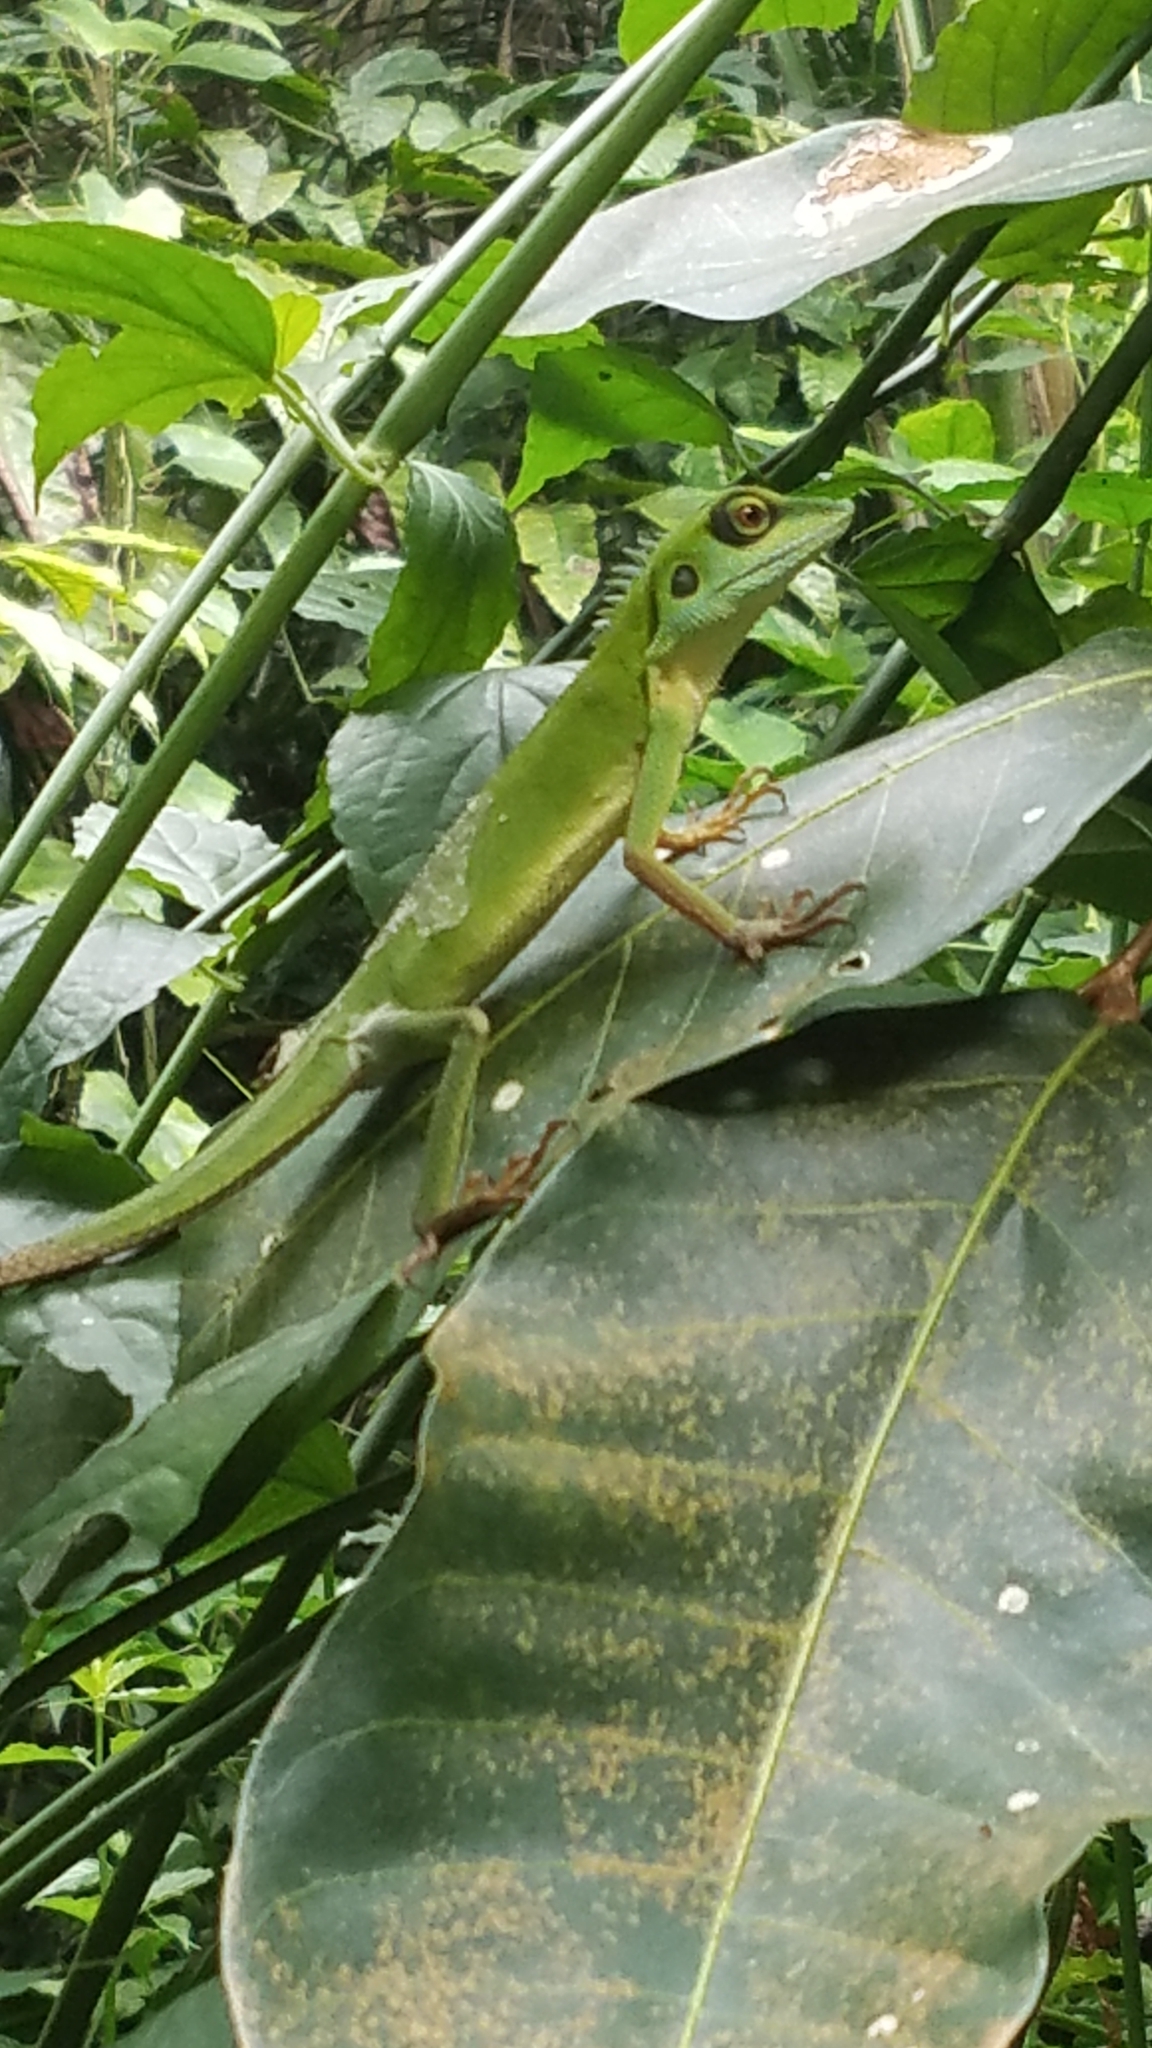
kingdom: Animalia
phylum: Chordata
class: Squamata
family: Agamidae
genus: Bronchocela
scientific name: Bronchocela cristatella
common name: Green crested lizard
